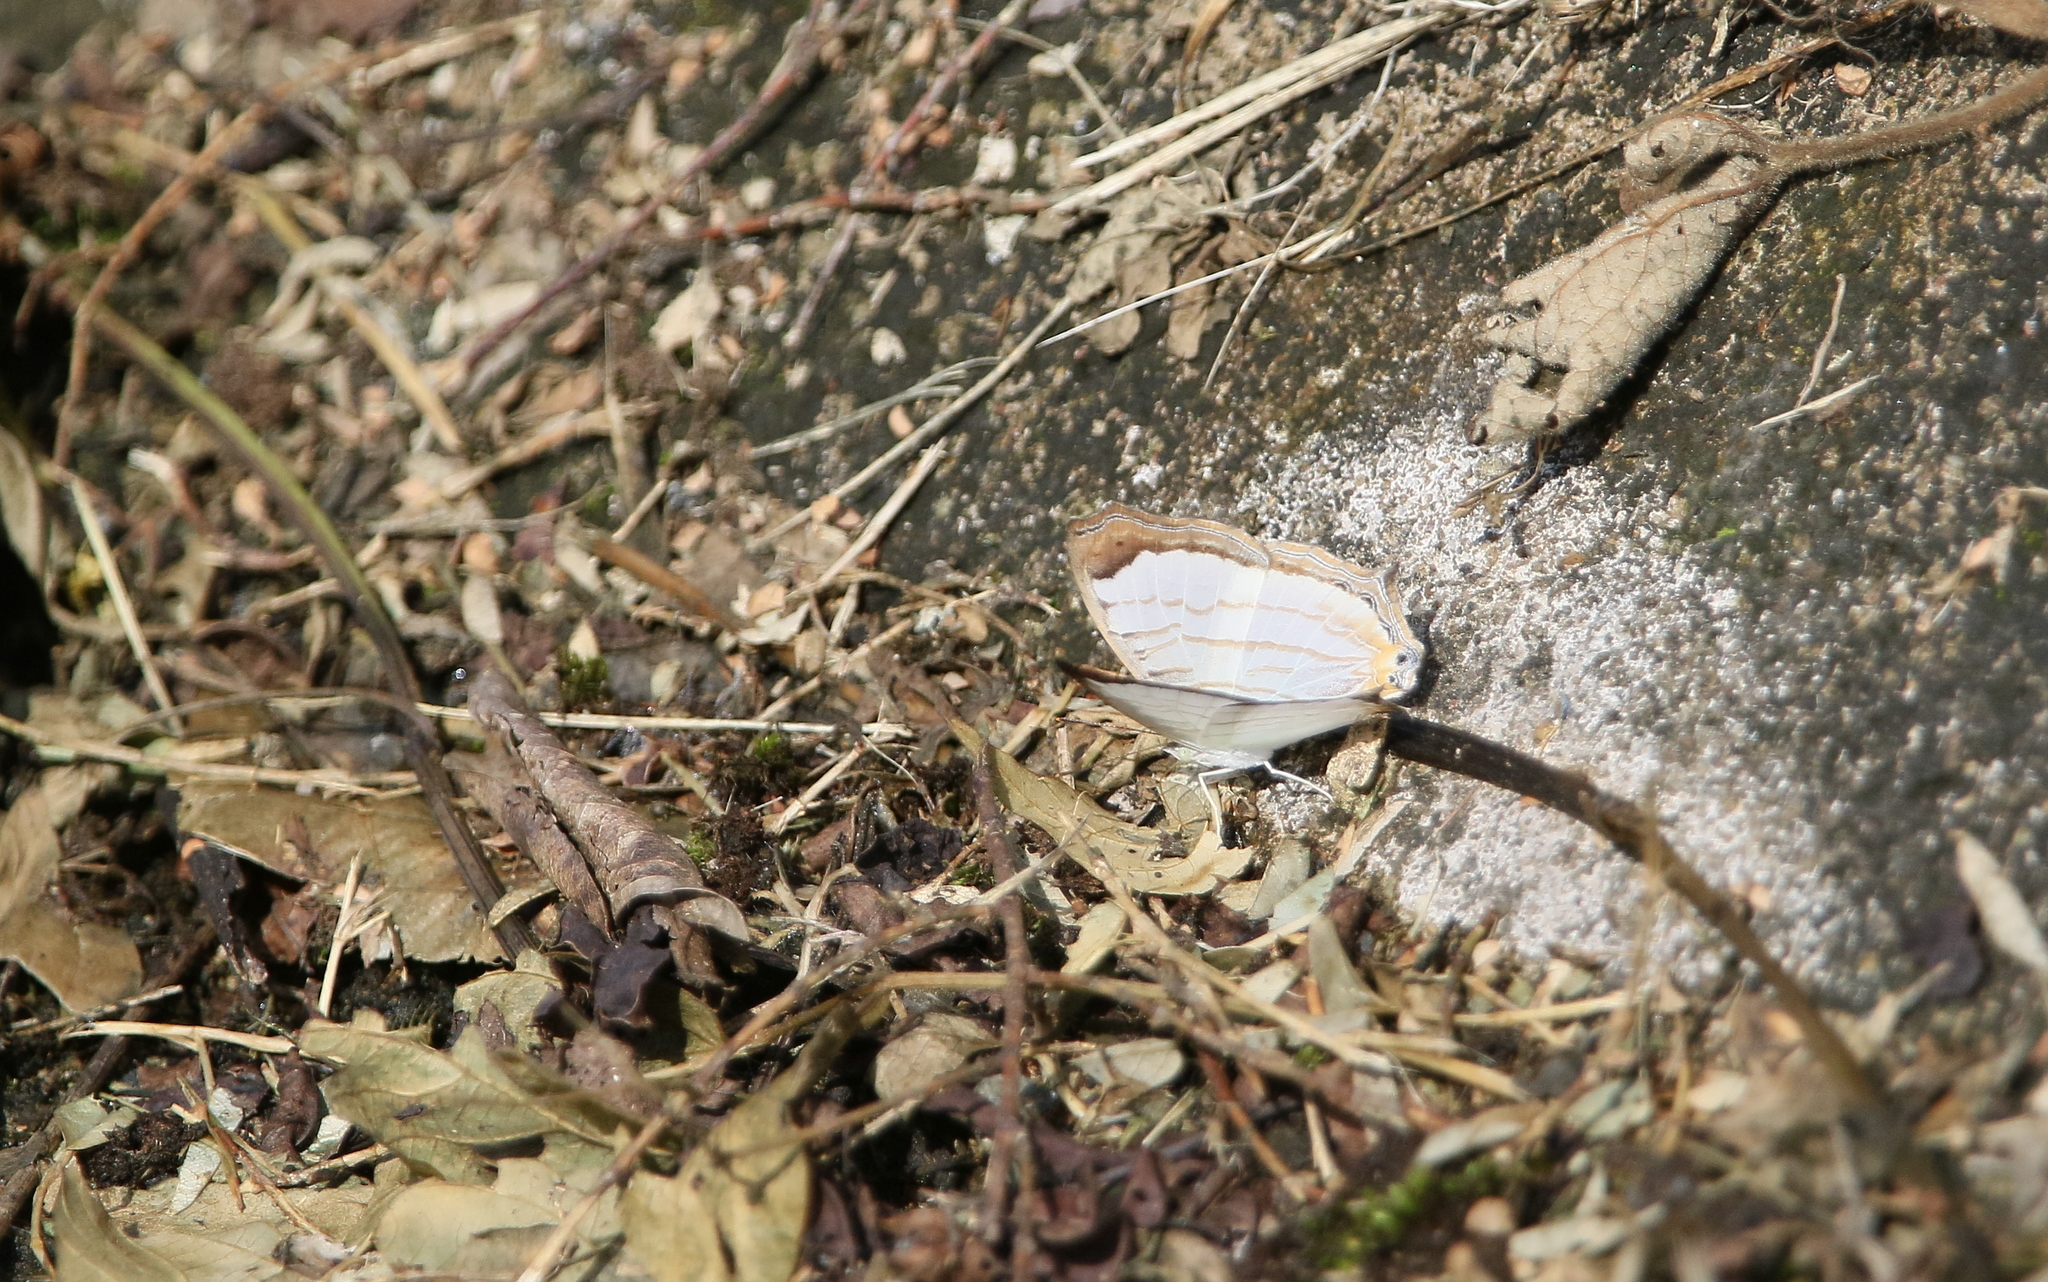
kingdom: Animalia
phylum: Arthropoda
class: Insecta
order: Lepidoptera
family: Nymphalidae
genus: Cyrestis
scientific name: Cyrestis themire
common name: Little mapwing
